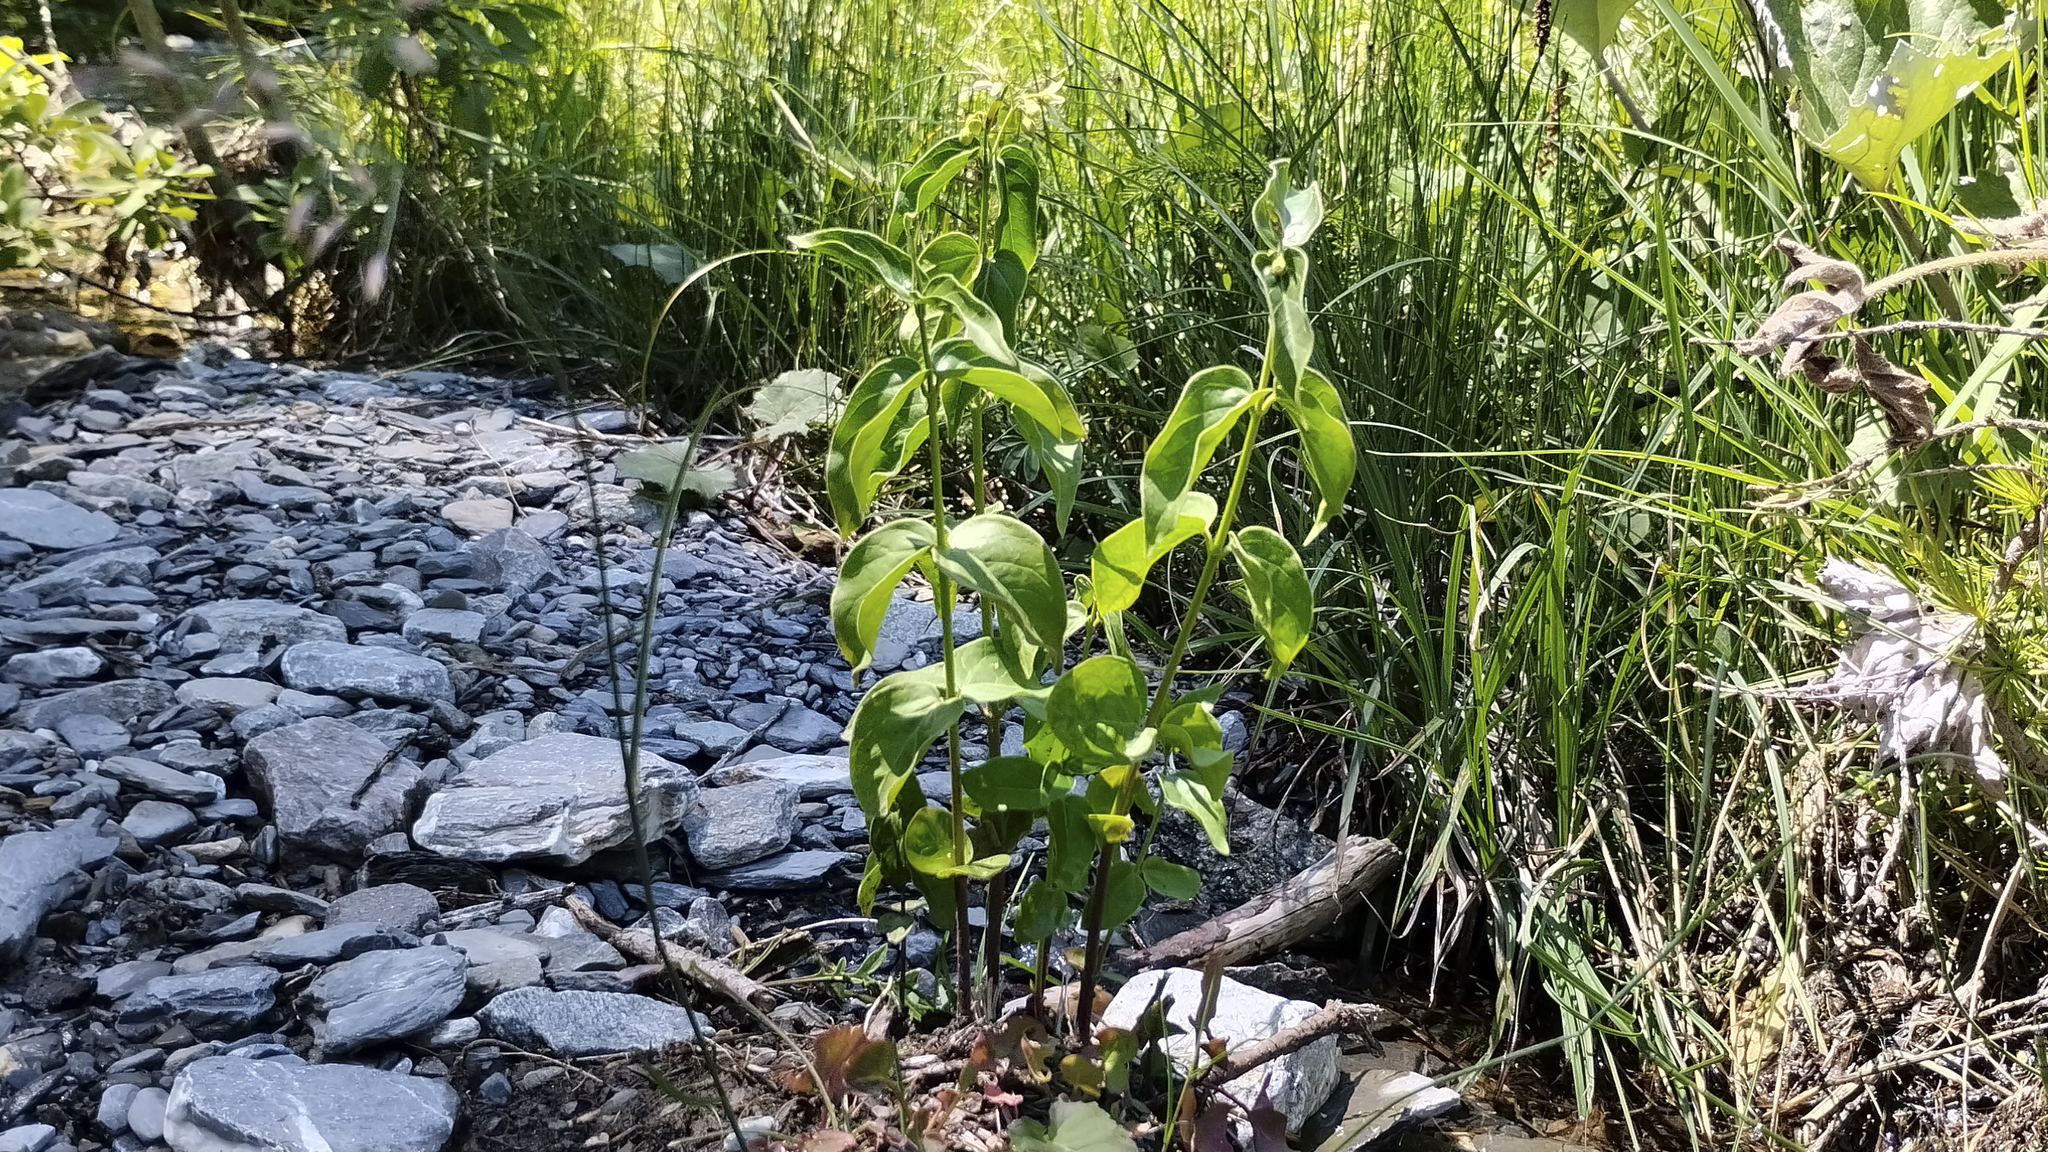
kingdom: Plantae
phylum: Tracheophyta
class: Magnoliopsida
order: Gentianales
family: Apocynaceae
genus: Vincetoxicum
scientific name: Vincetoxicum hirundinaria
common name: White swallowwort
